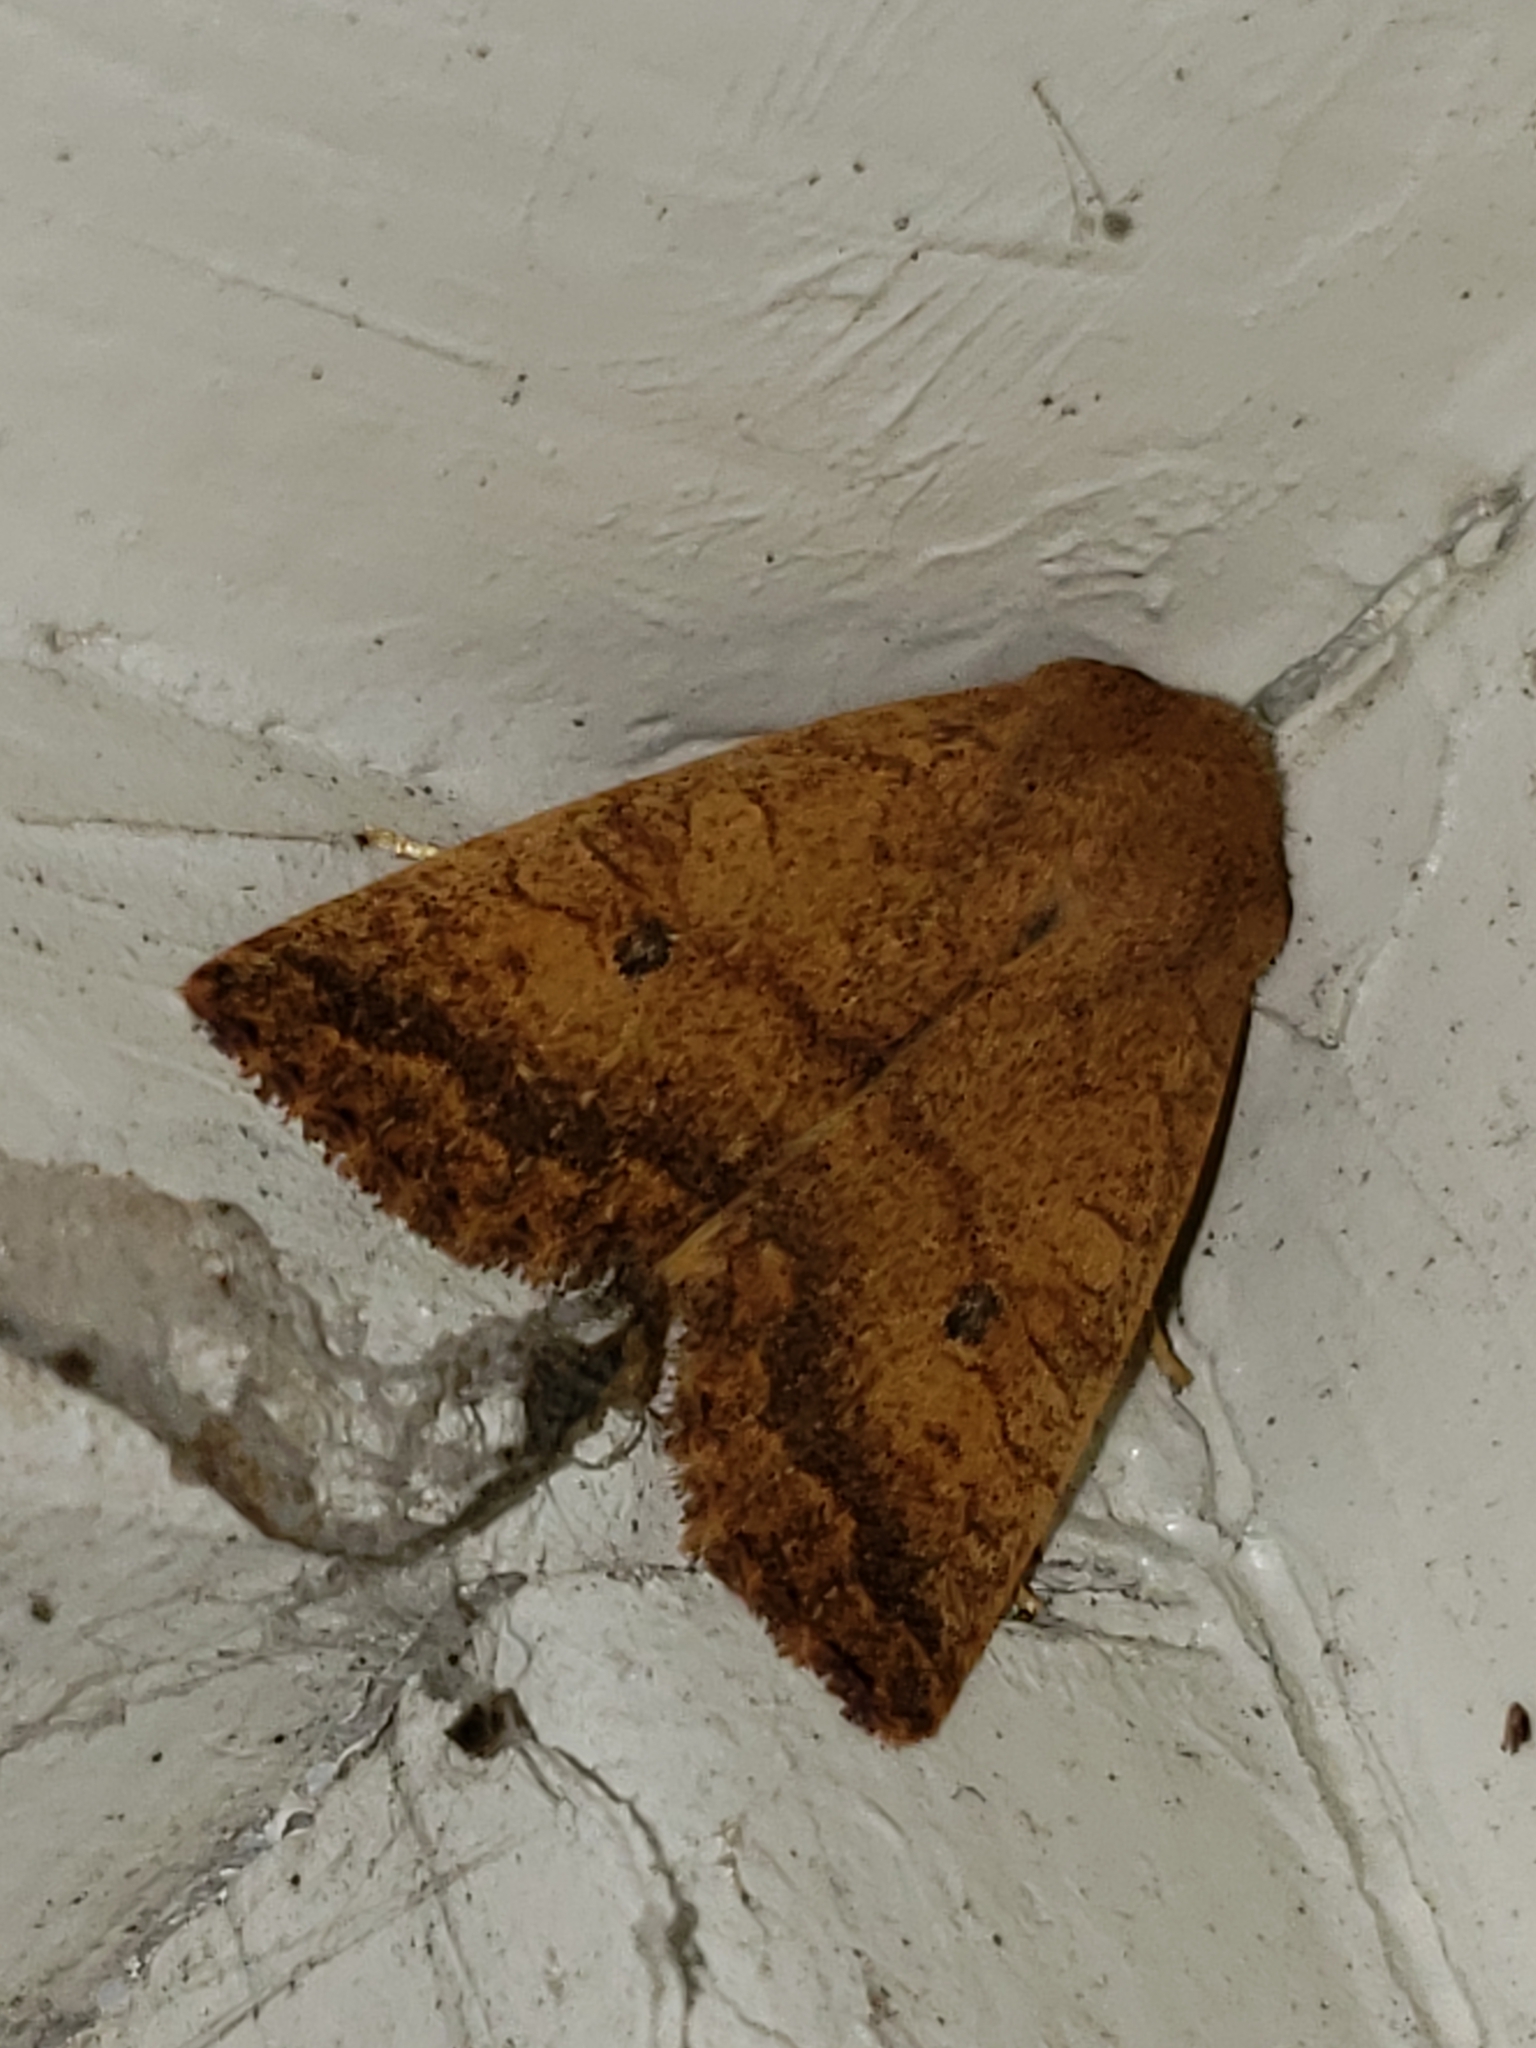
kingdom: Animalia
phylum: Arthropoda
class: Insecta
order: Lepidoptera
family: Noctuidae
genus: Agrochola
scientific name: Agrochola bicolorago
